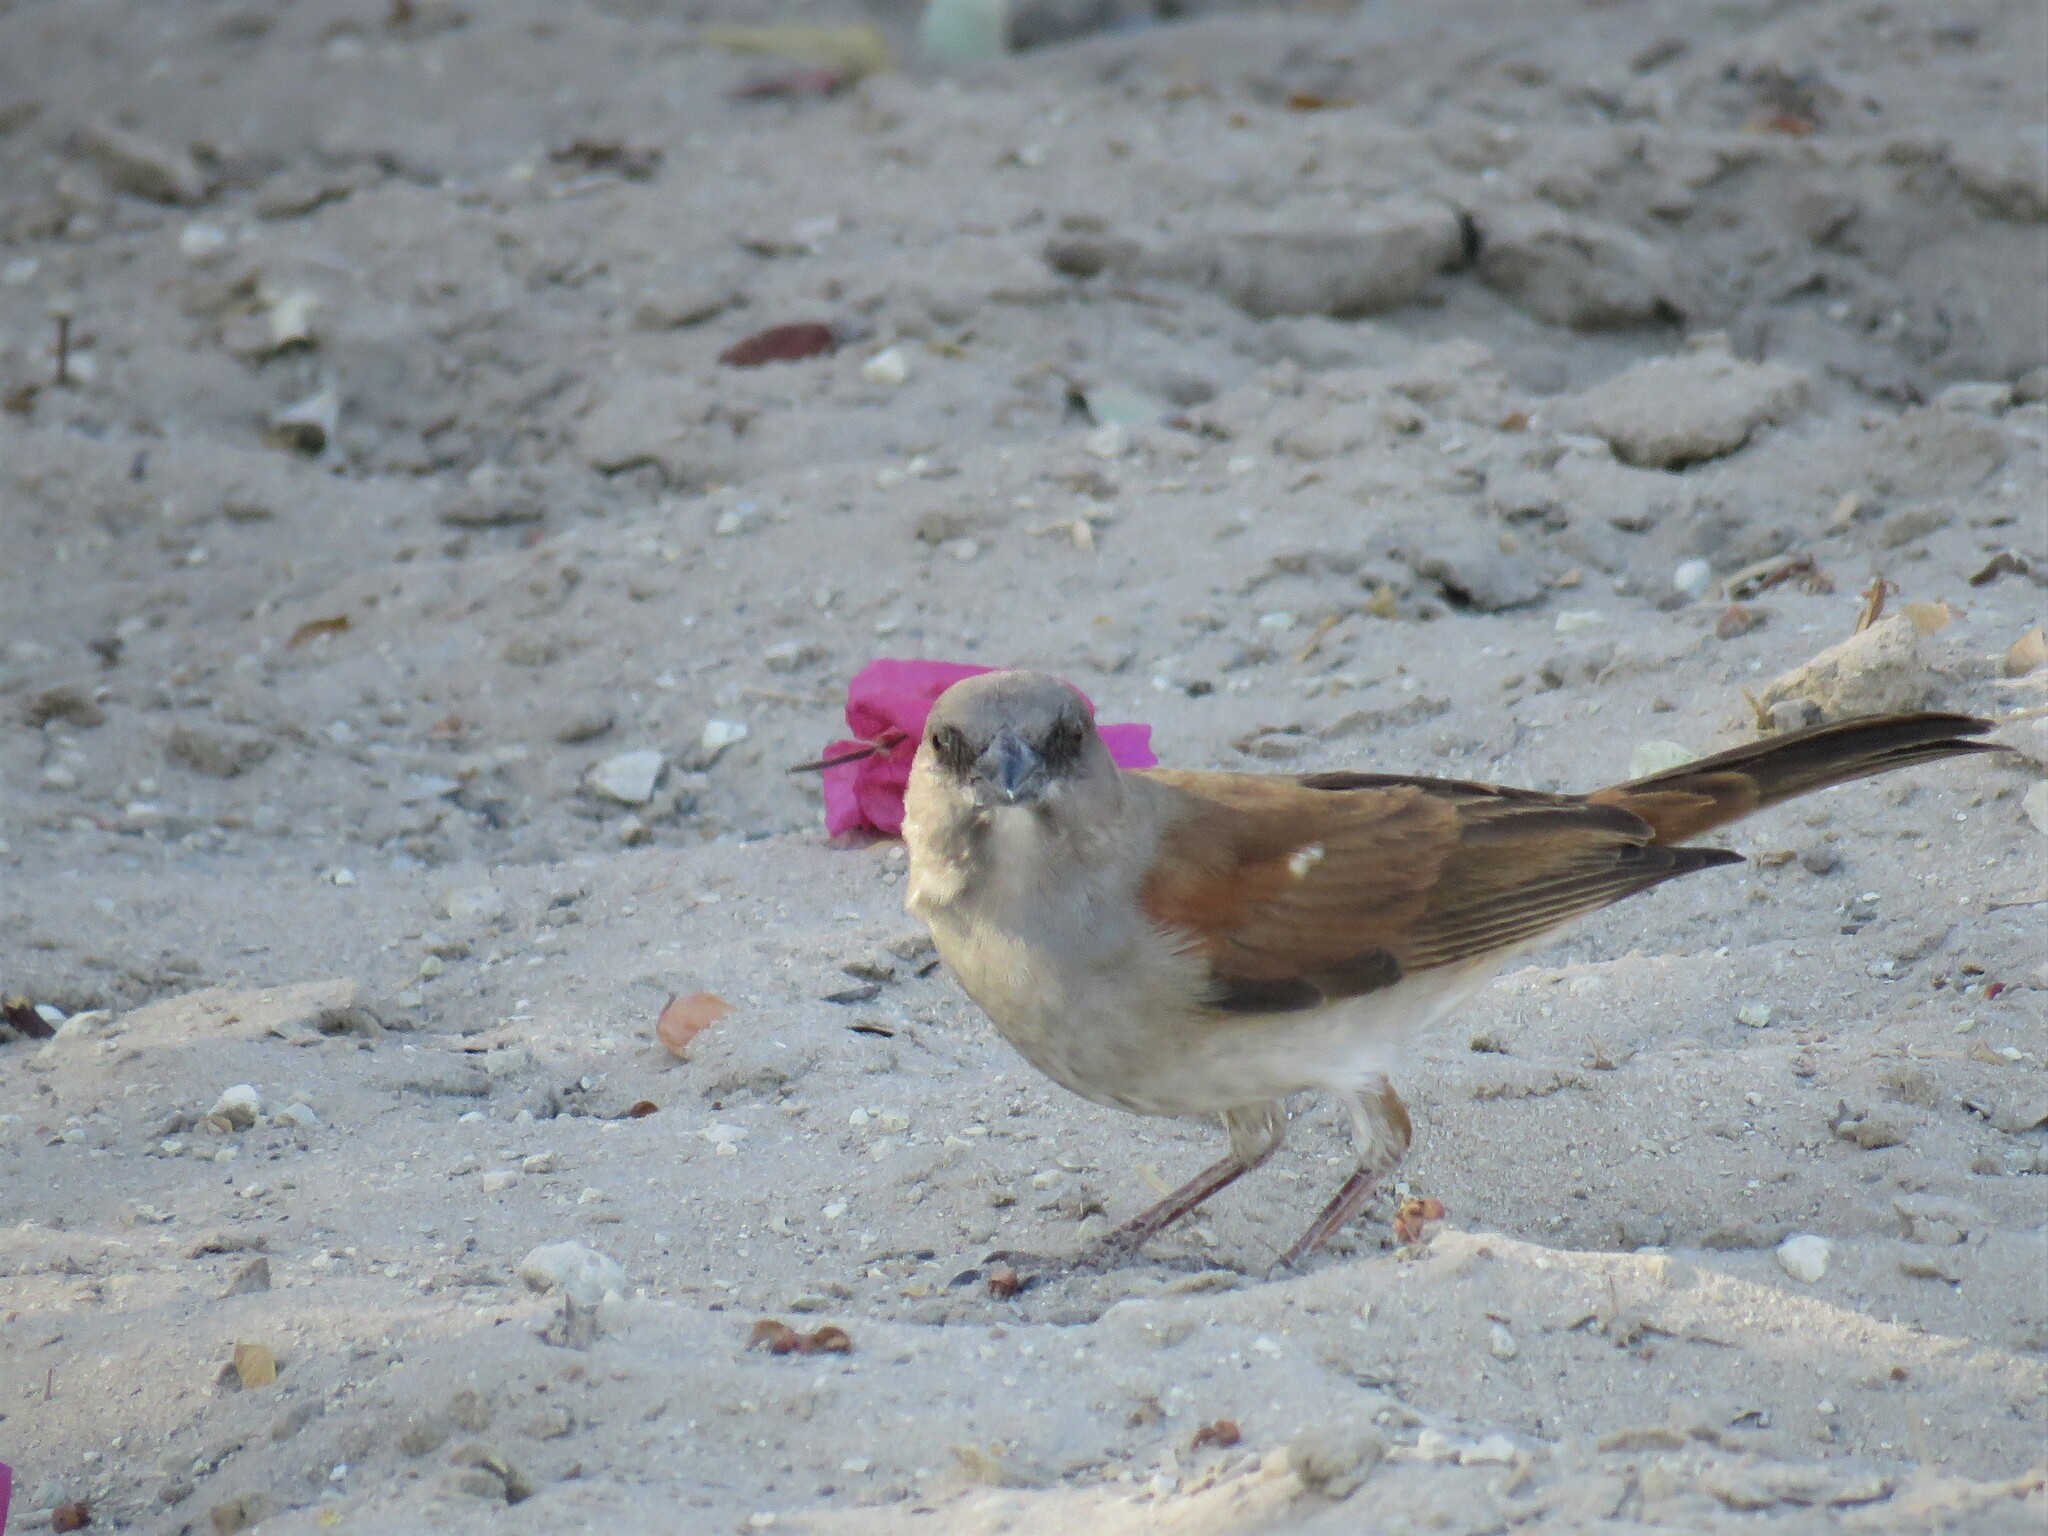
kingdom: Animalia
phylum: Chordata
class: Aves
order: Passeriformes
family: Passeridae
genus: Passer
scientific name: Passer griseus
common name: Northern grey-headed sparrow
